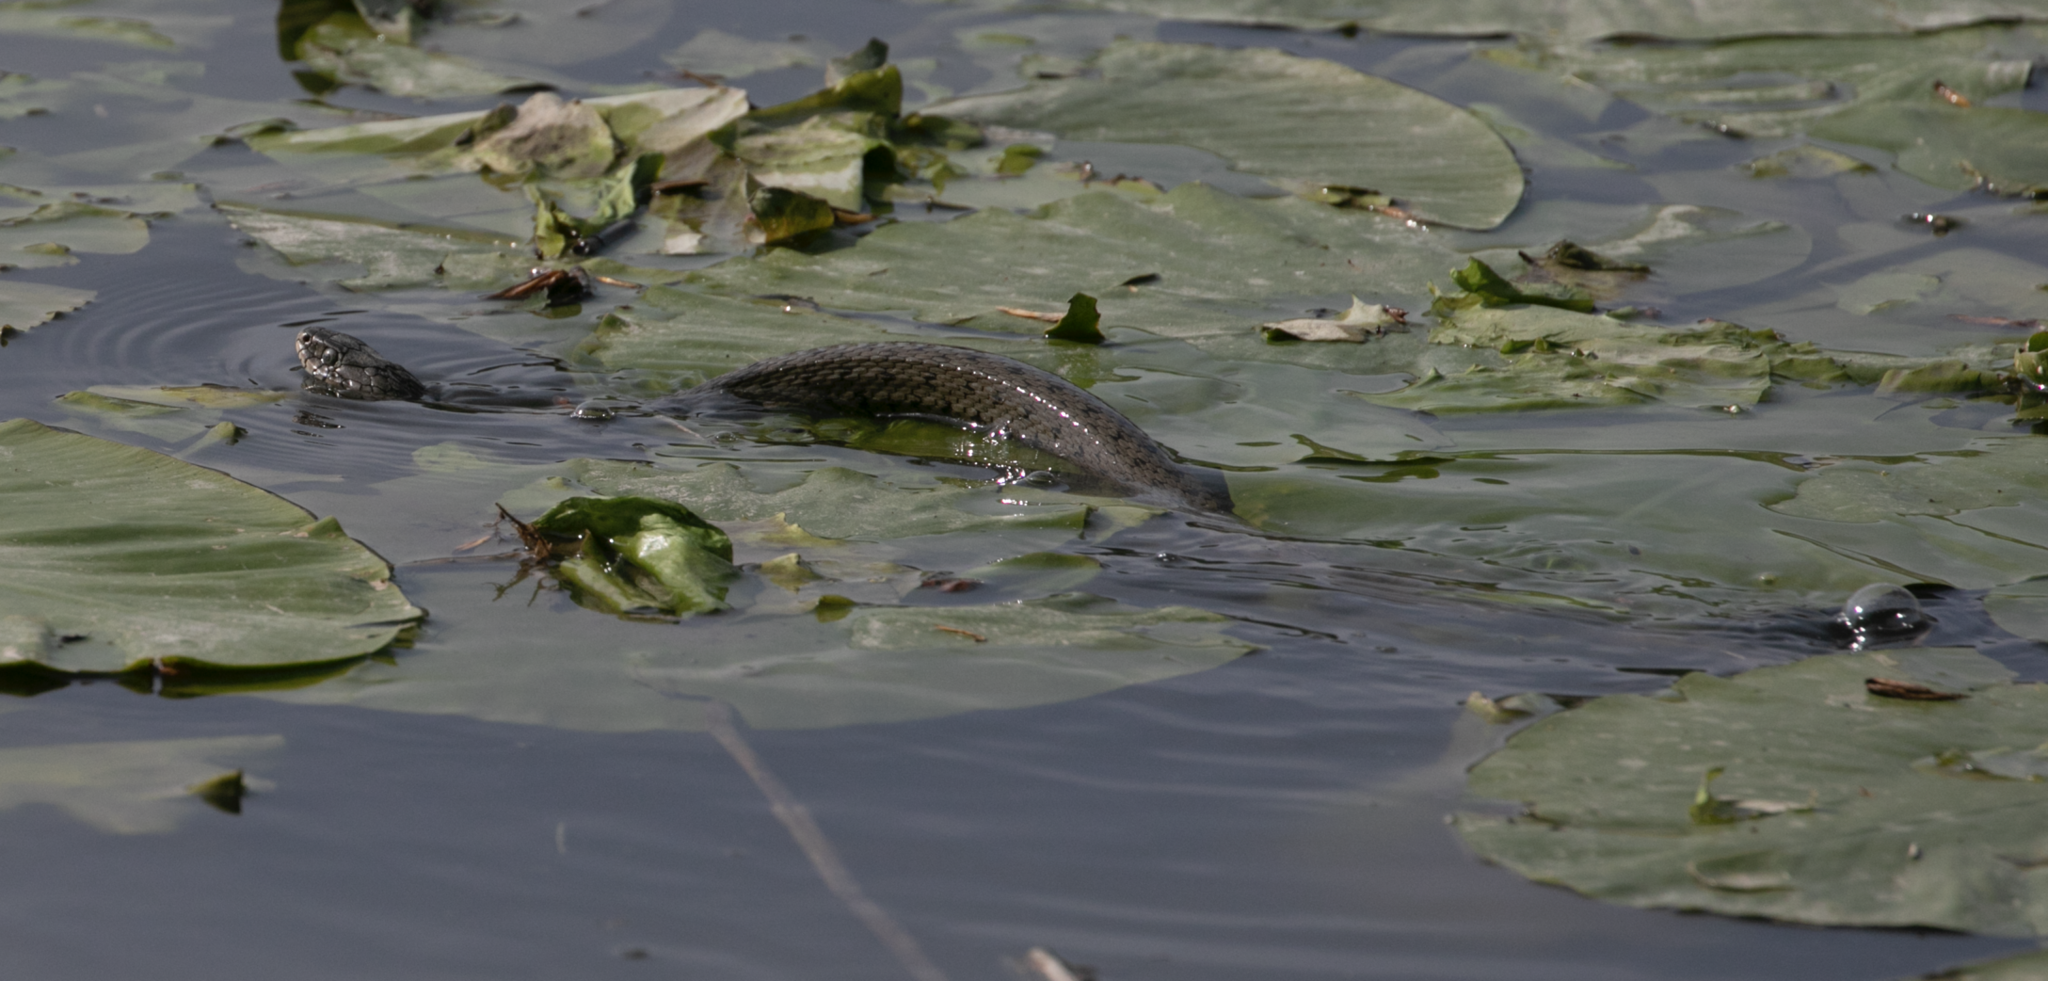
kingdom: Animalia
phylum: Chordata
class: Squamata
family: Colubridae
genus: Natrix
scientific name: Natrix helvetica
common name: Banded grass snake
